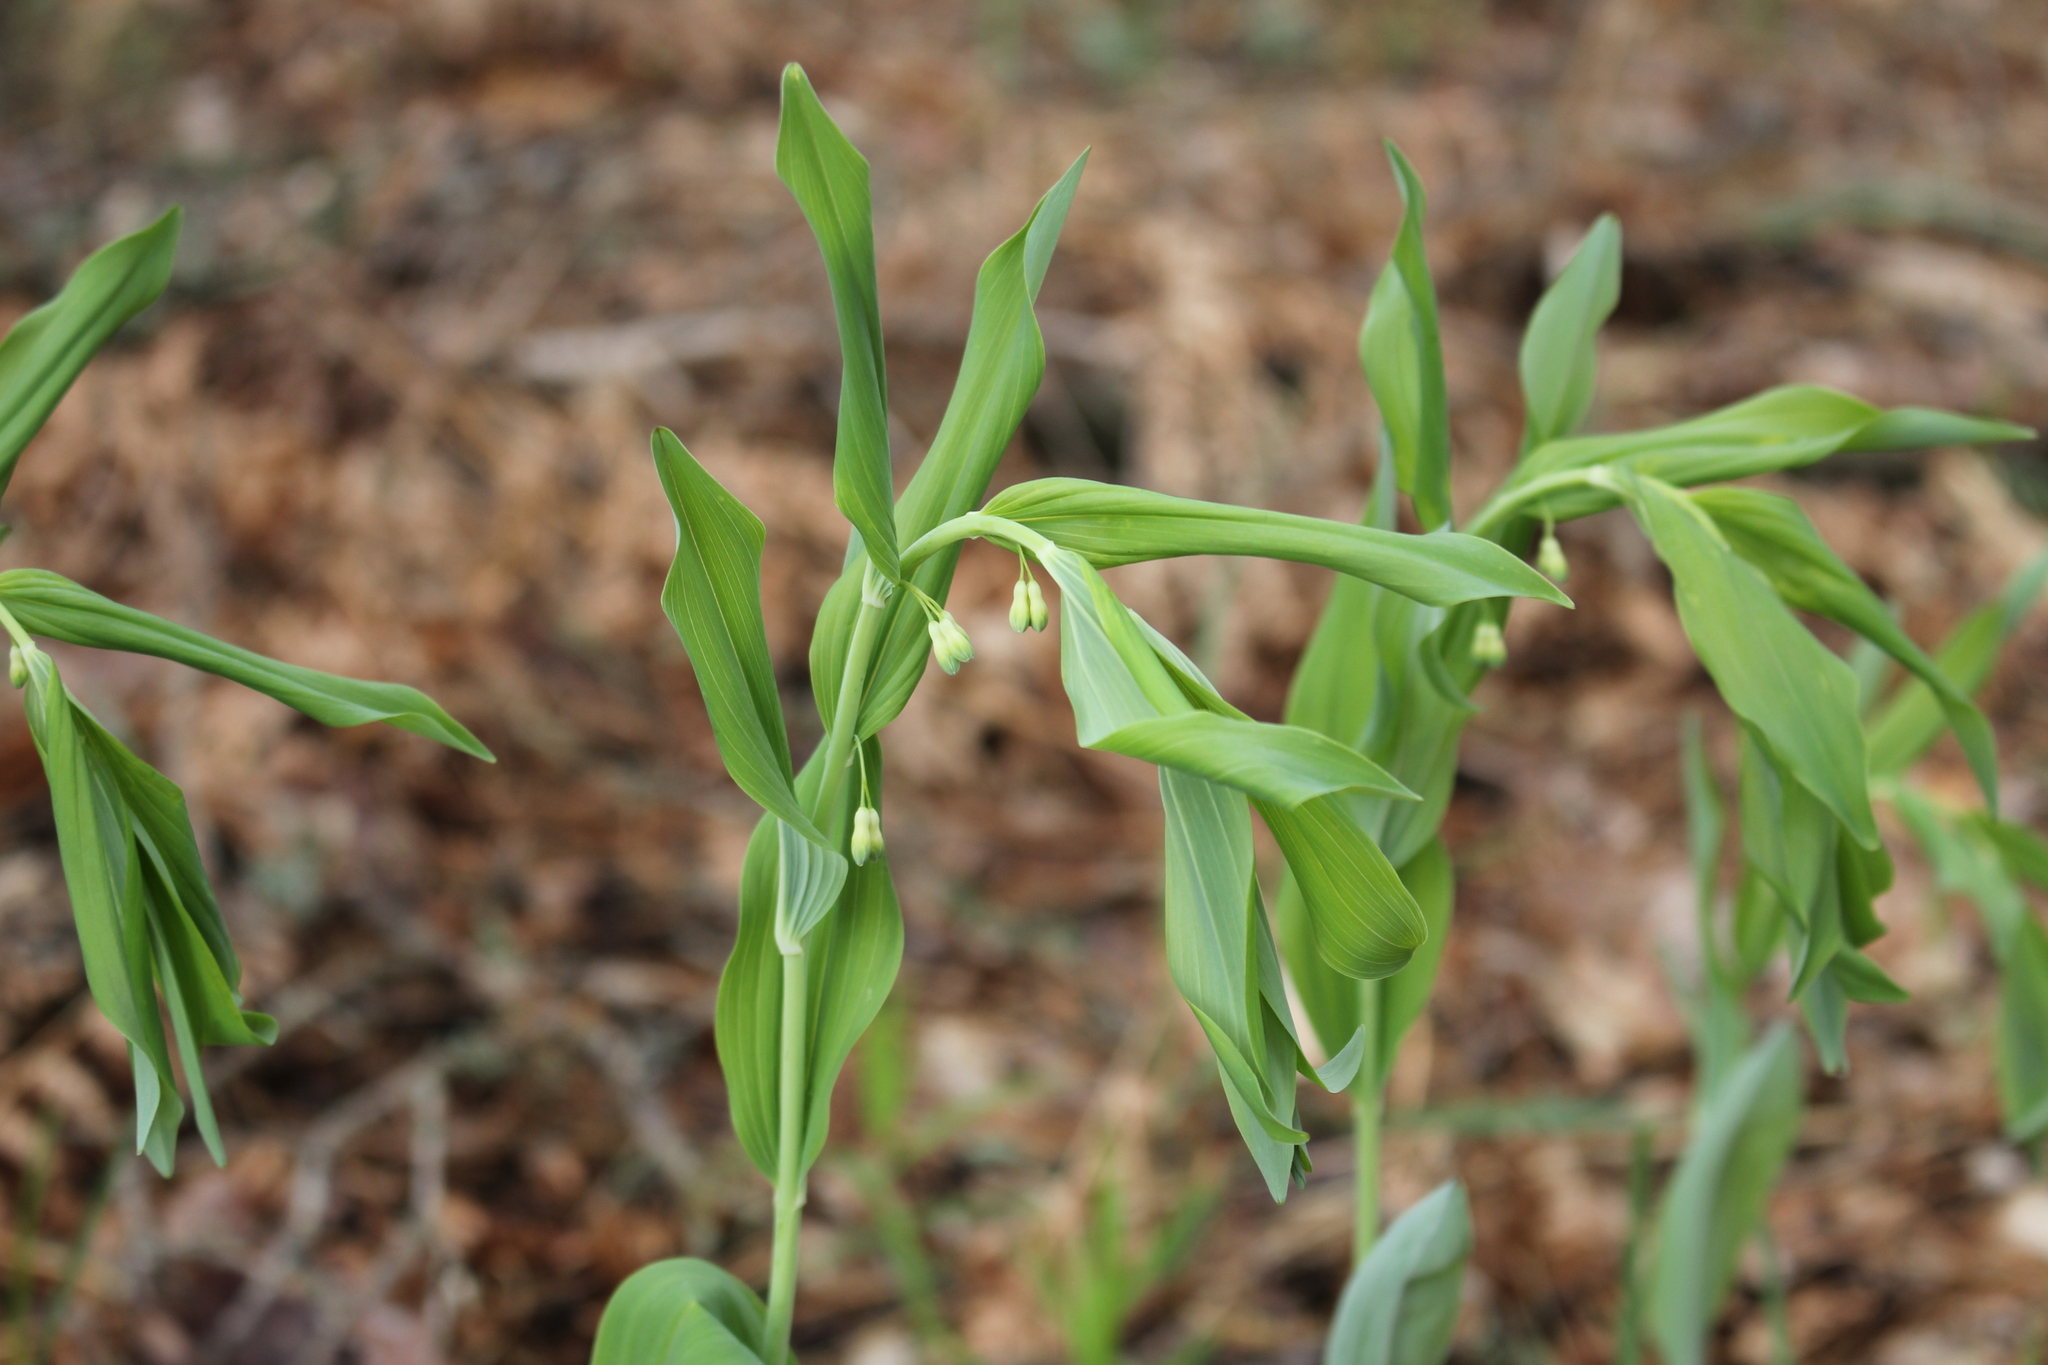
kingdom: Plantae
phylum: Tracheophyta
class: Liliopsida
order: Asparagales
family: Asparagaceae
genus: Polygonatum
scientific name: Polygonatum multiflorum
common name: Solomon's-seal
